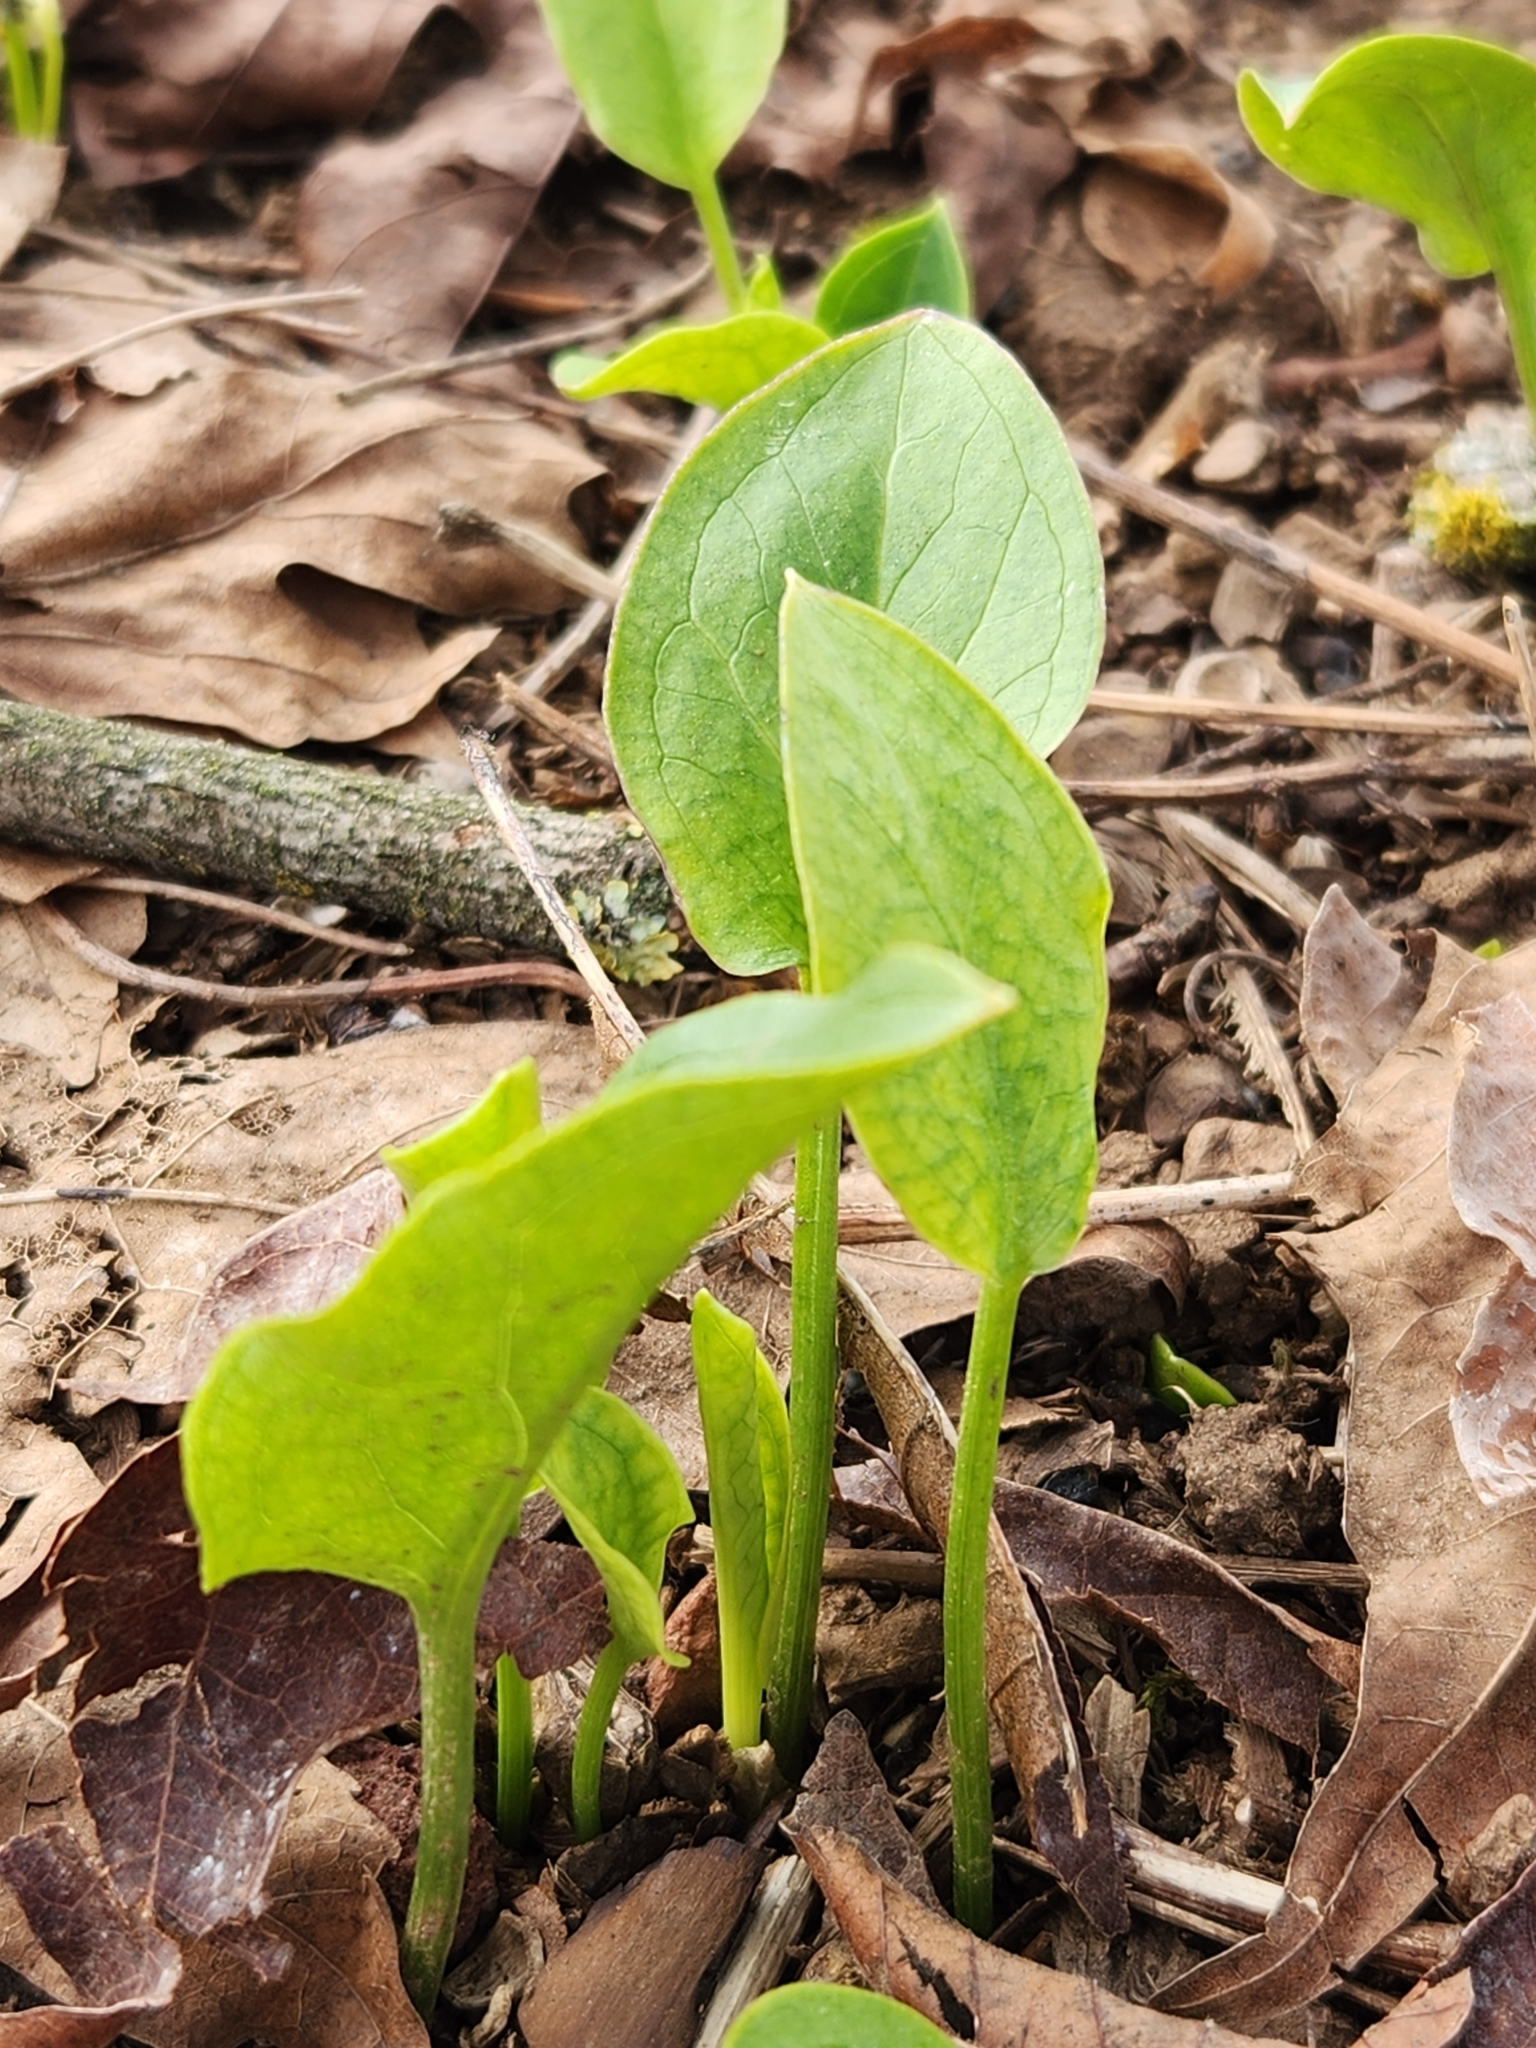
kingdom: Plantae
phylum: Tracheophyta
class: Liliopsida
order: Alismatales
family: Araceae
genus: Arum
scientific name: Arum italicum
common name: Italian lords-and-ladies
